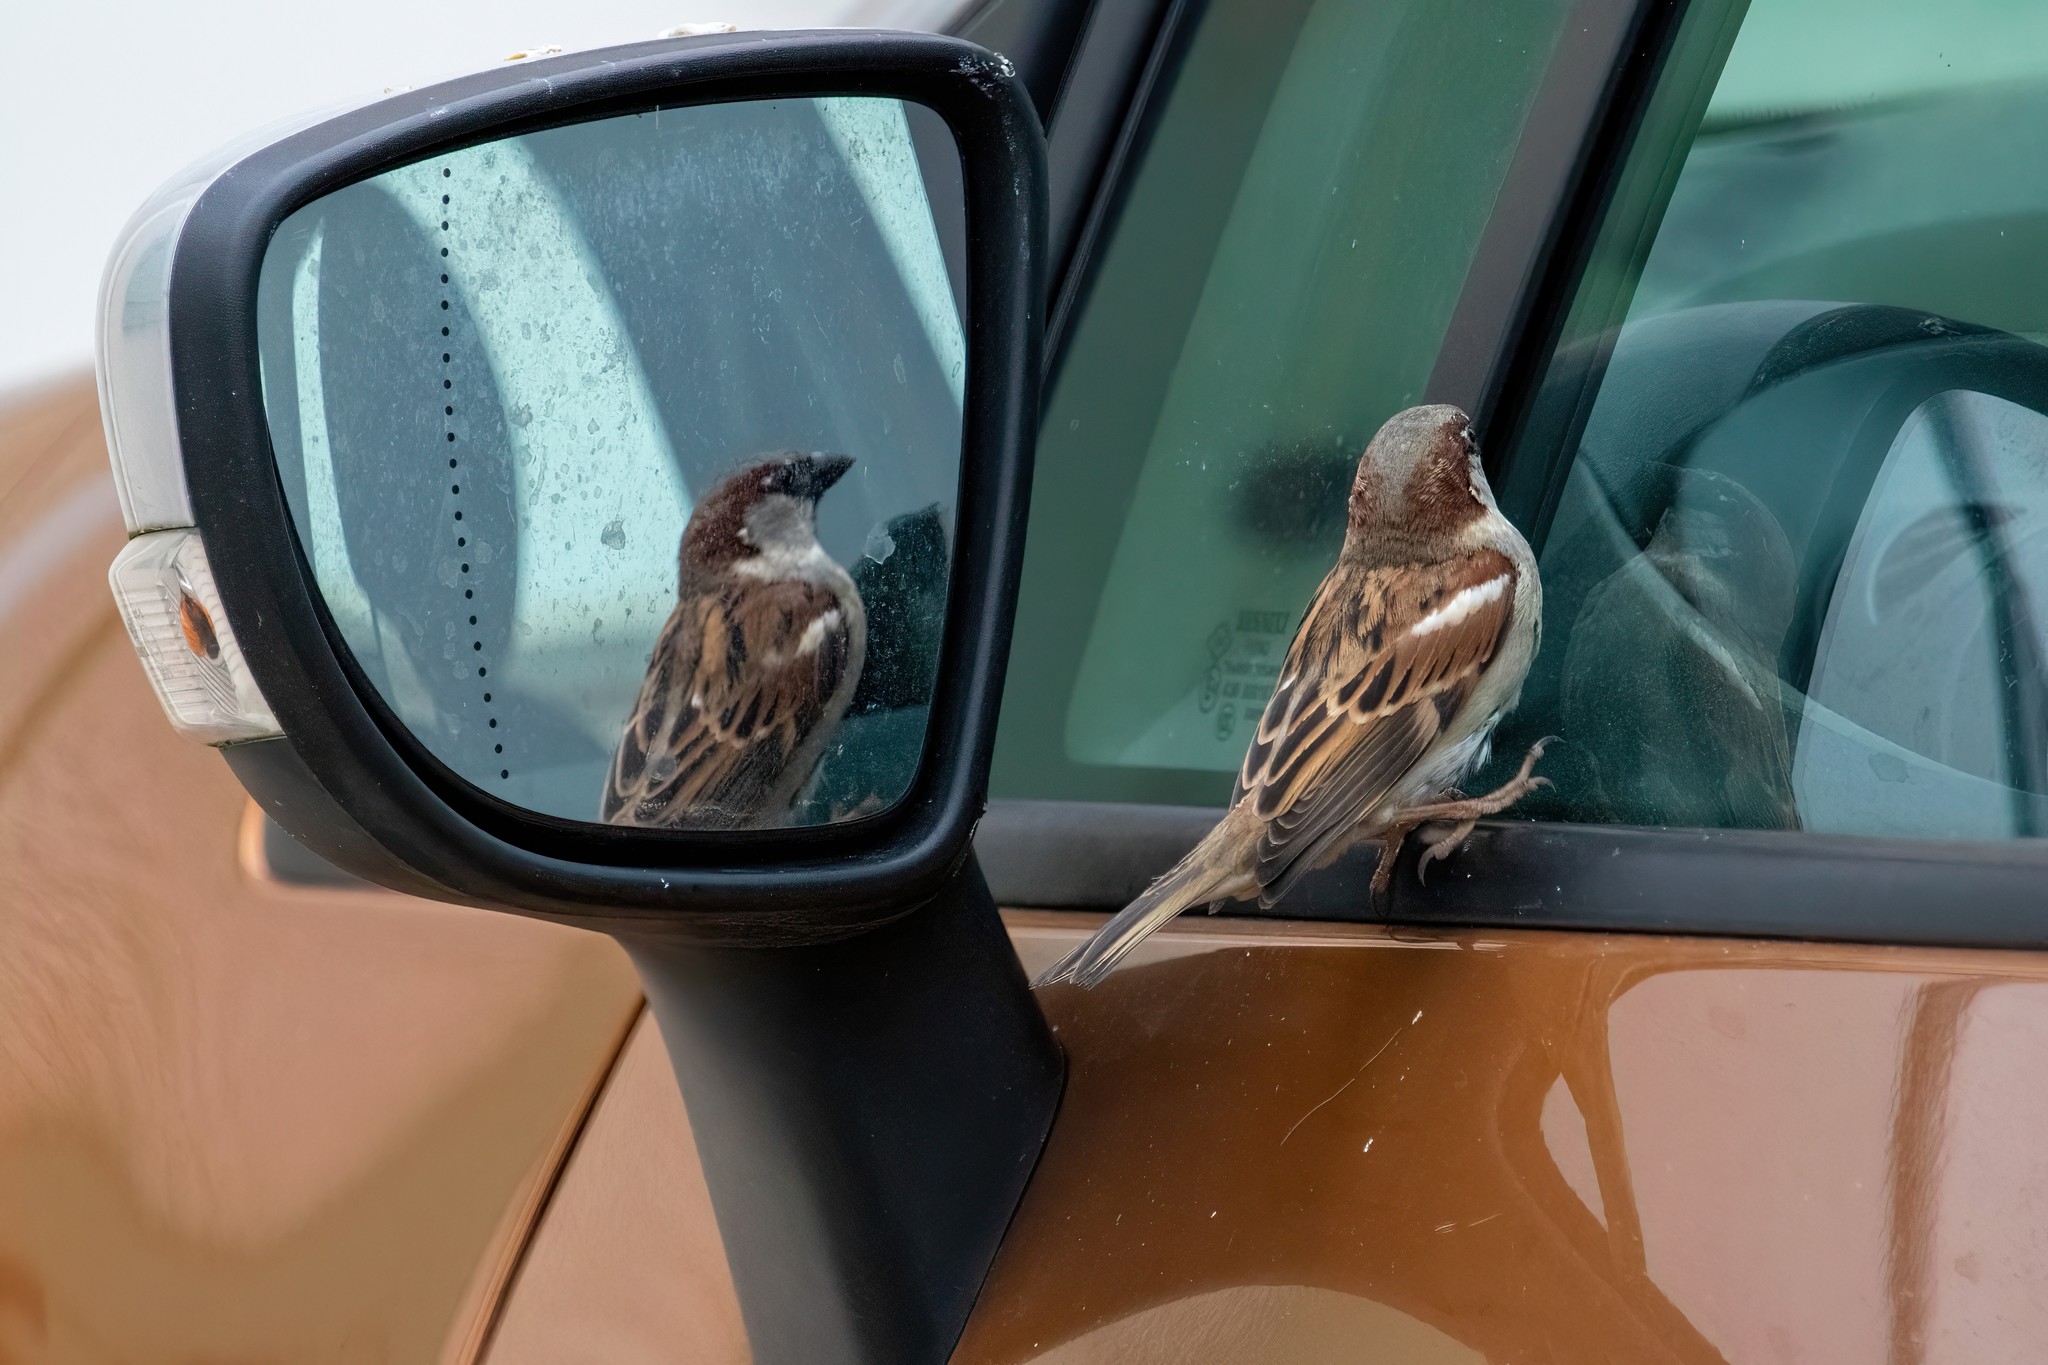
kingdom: Animalia
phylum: Chordata
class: Aves
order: Passeriformes
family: Passeridae
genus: Passer
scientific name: Passer domesticus
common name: House sparrow
